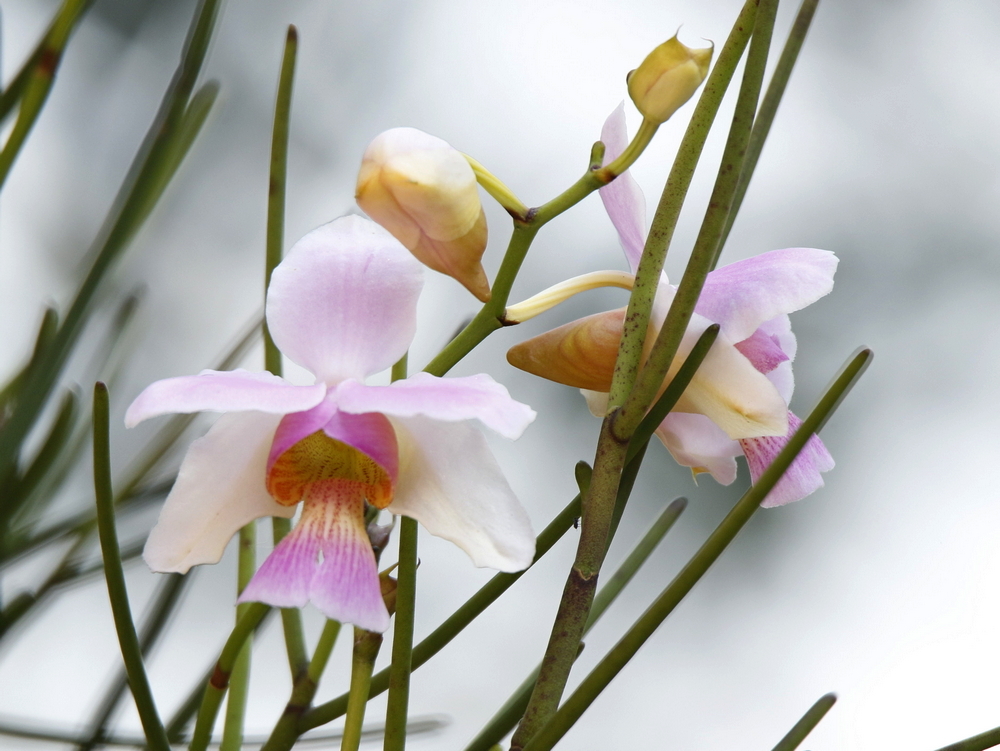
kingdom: Plantae
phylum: Tracheophyta
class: Liliopsida
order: Asparagales
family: Orchidaceae
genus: Papilionanthe
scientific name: Papilionanthe teres
